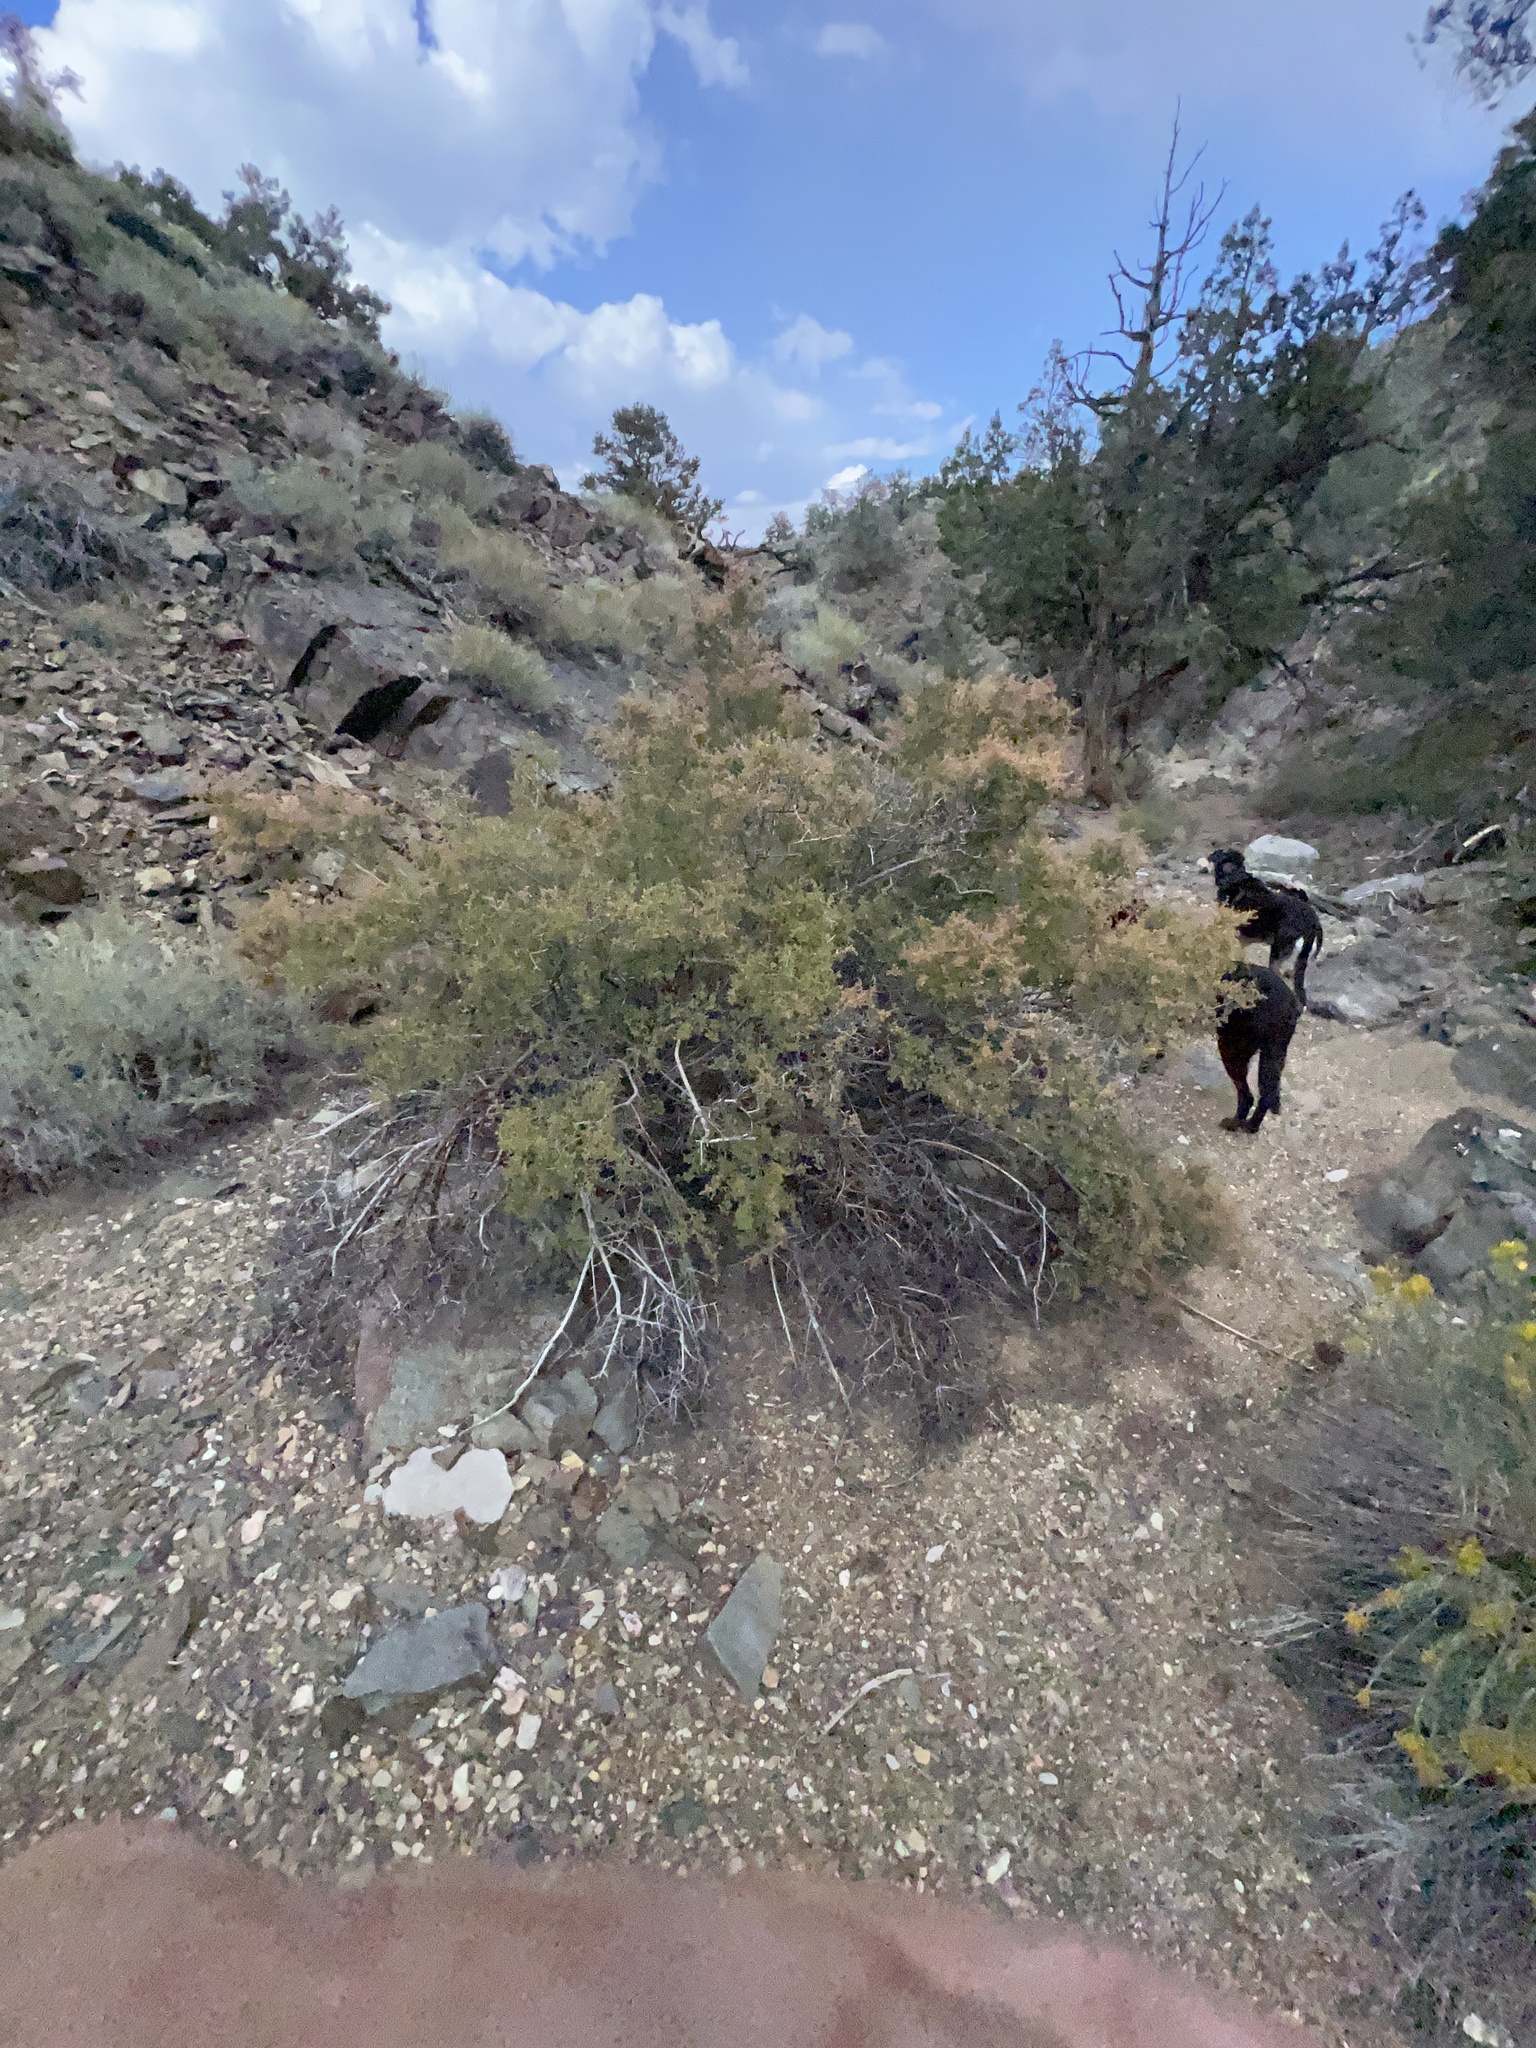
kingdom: Plantae
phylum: Tracheophyta
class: Magnoliopsida
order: Rosales
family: Rosaceae
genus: Holodiscus
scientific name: Holodiscus discolor
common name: Oceanspray
